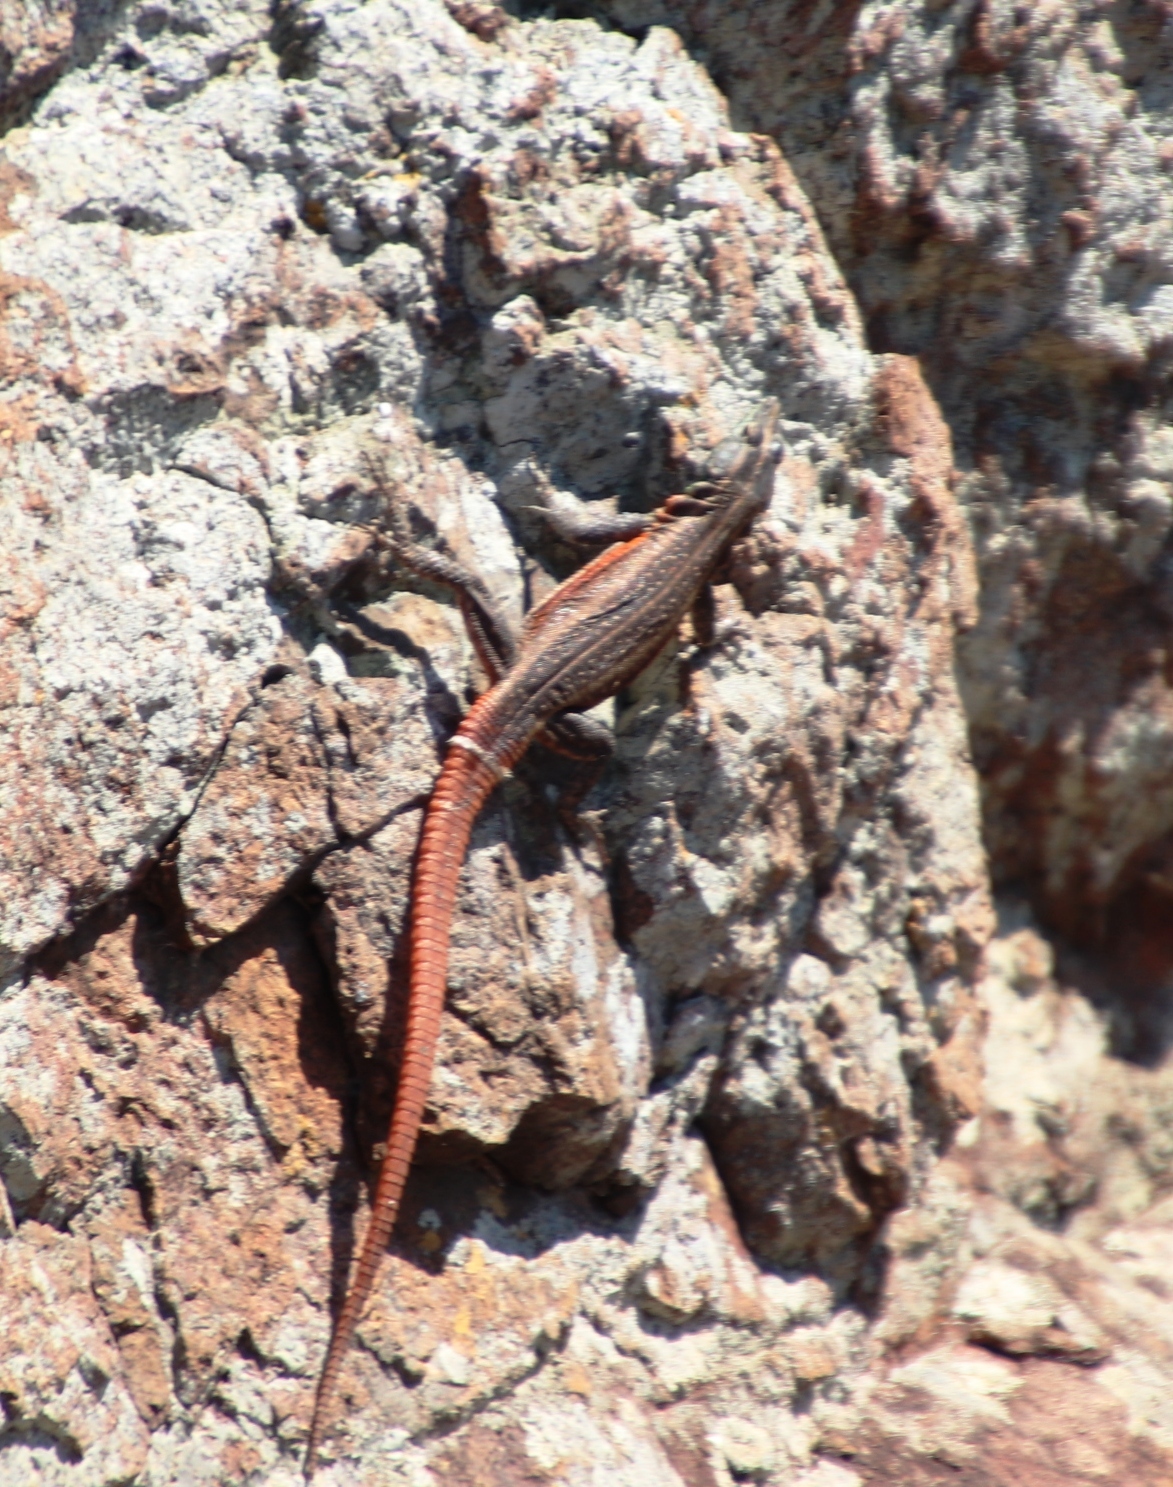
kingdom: Animalia
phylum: Chordata
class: Squamata
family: Cordylidae
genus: Platysaurus
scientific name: Platysaurus lebomboensis
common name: Lebombo flat lizard
